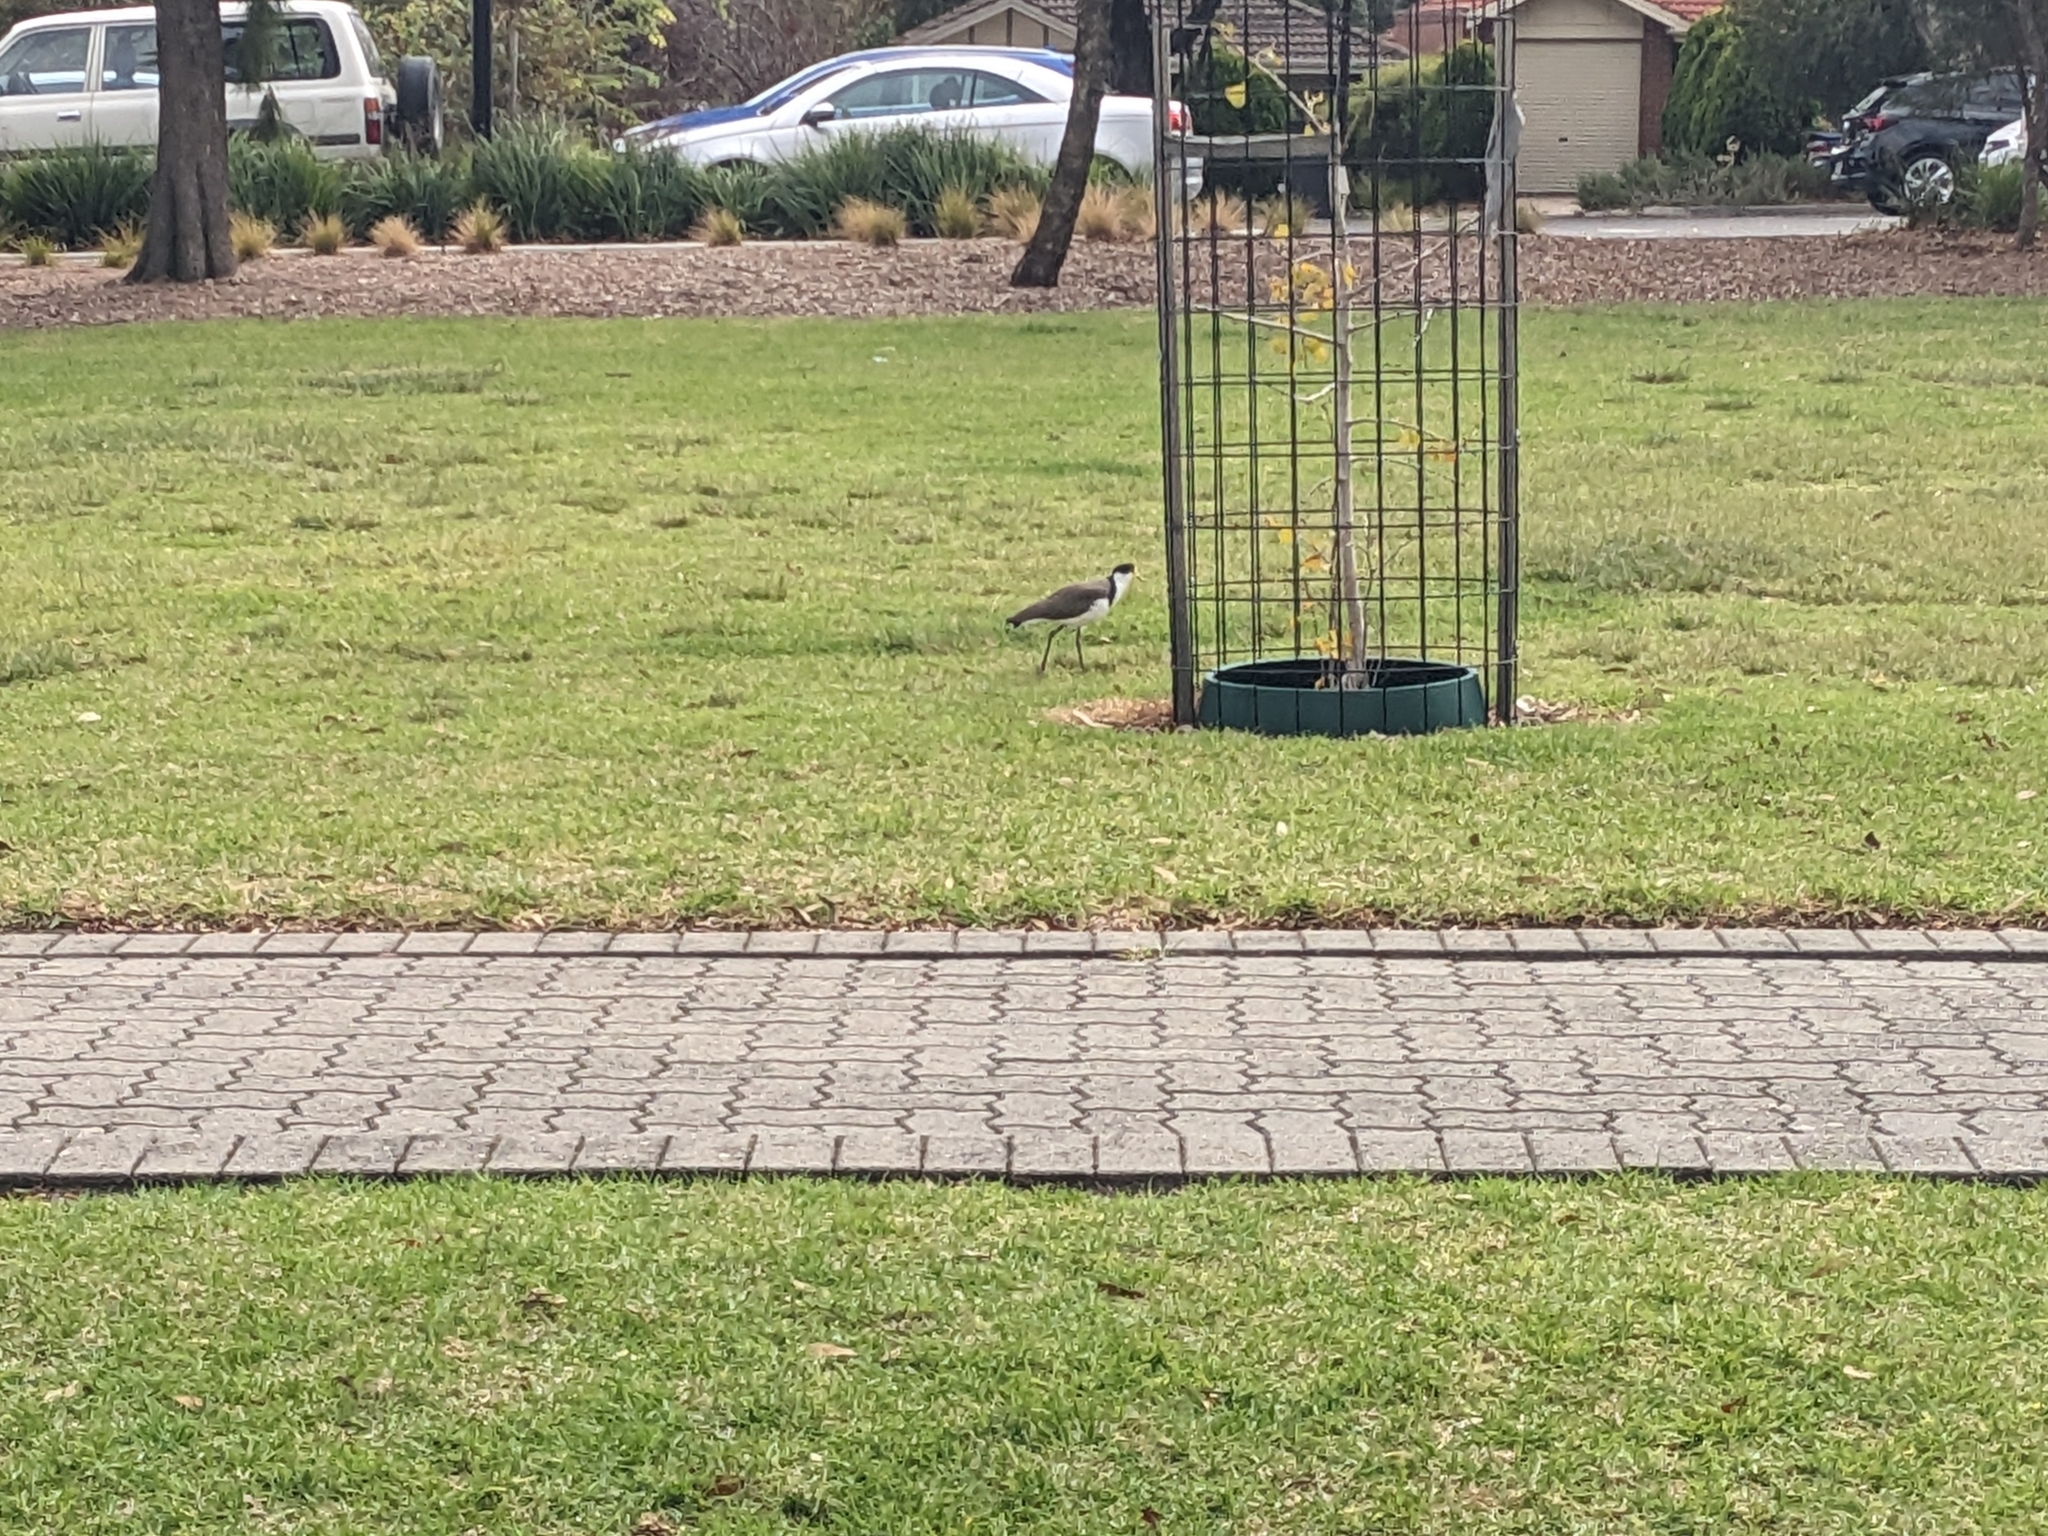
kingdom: Animalia
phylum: Chordata
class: Aves
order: Charadriiformes
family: Charadriidae
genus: Vanellus
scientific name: Vanellus miles
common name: Masked lapwing
